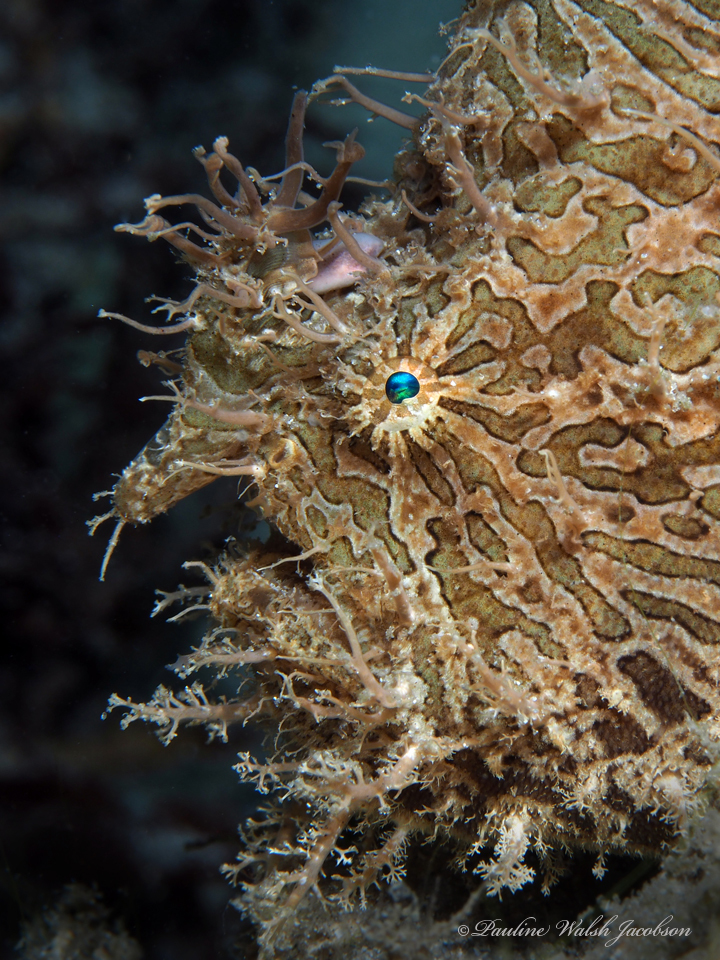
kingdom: Animalia
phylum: Chordata
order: Lophiiformes
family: Antennariidae
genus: Antennarius
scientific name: Antennarius striatus
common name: Striated frogfish
